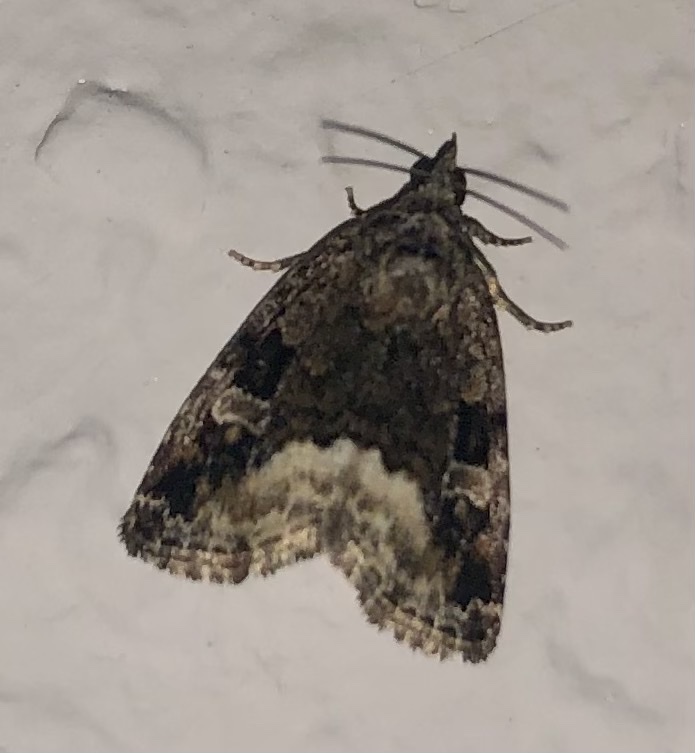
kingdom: Animalia
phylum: Arthropoda
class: Insecta
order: Lepidoptera
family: Noctuidae
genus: Deltote
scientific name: Deltote pygarga
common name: Marbled white spot
